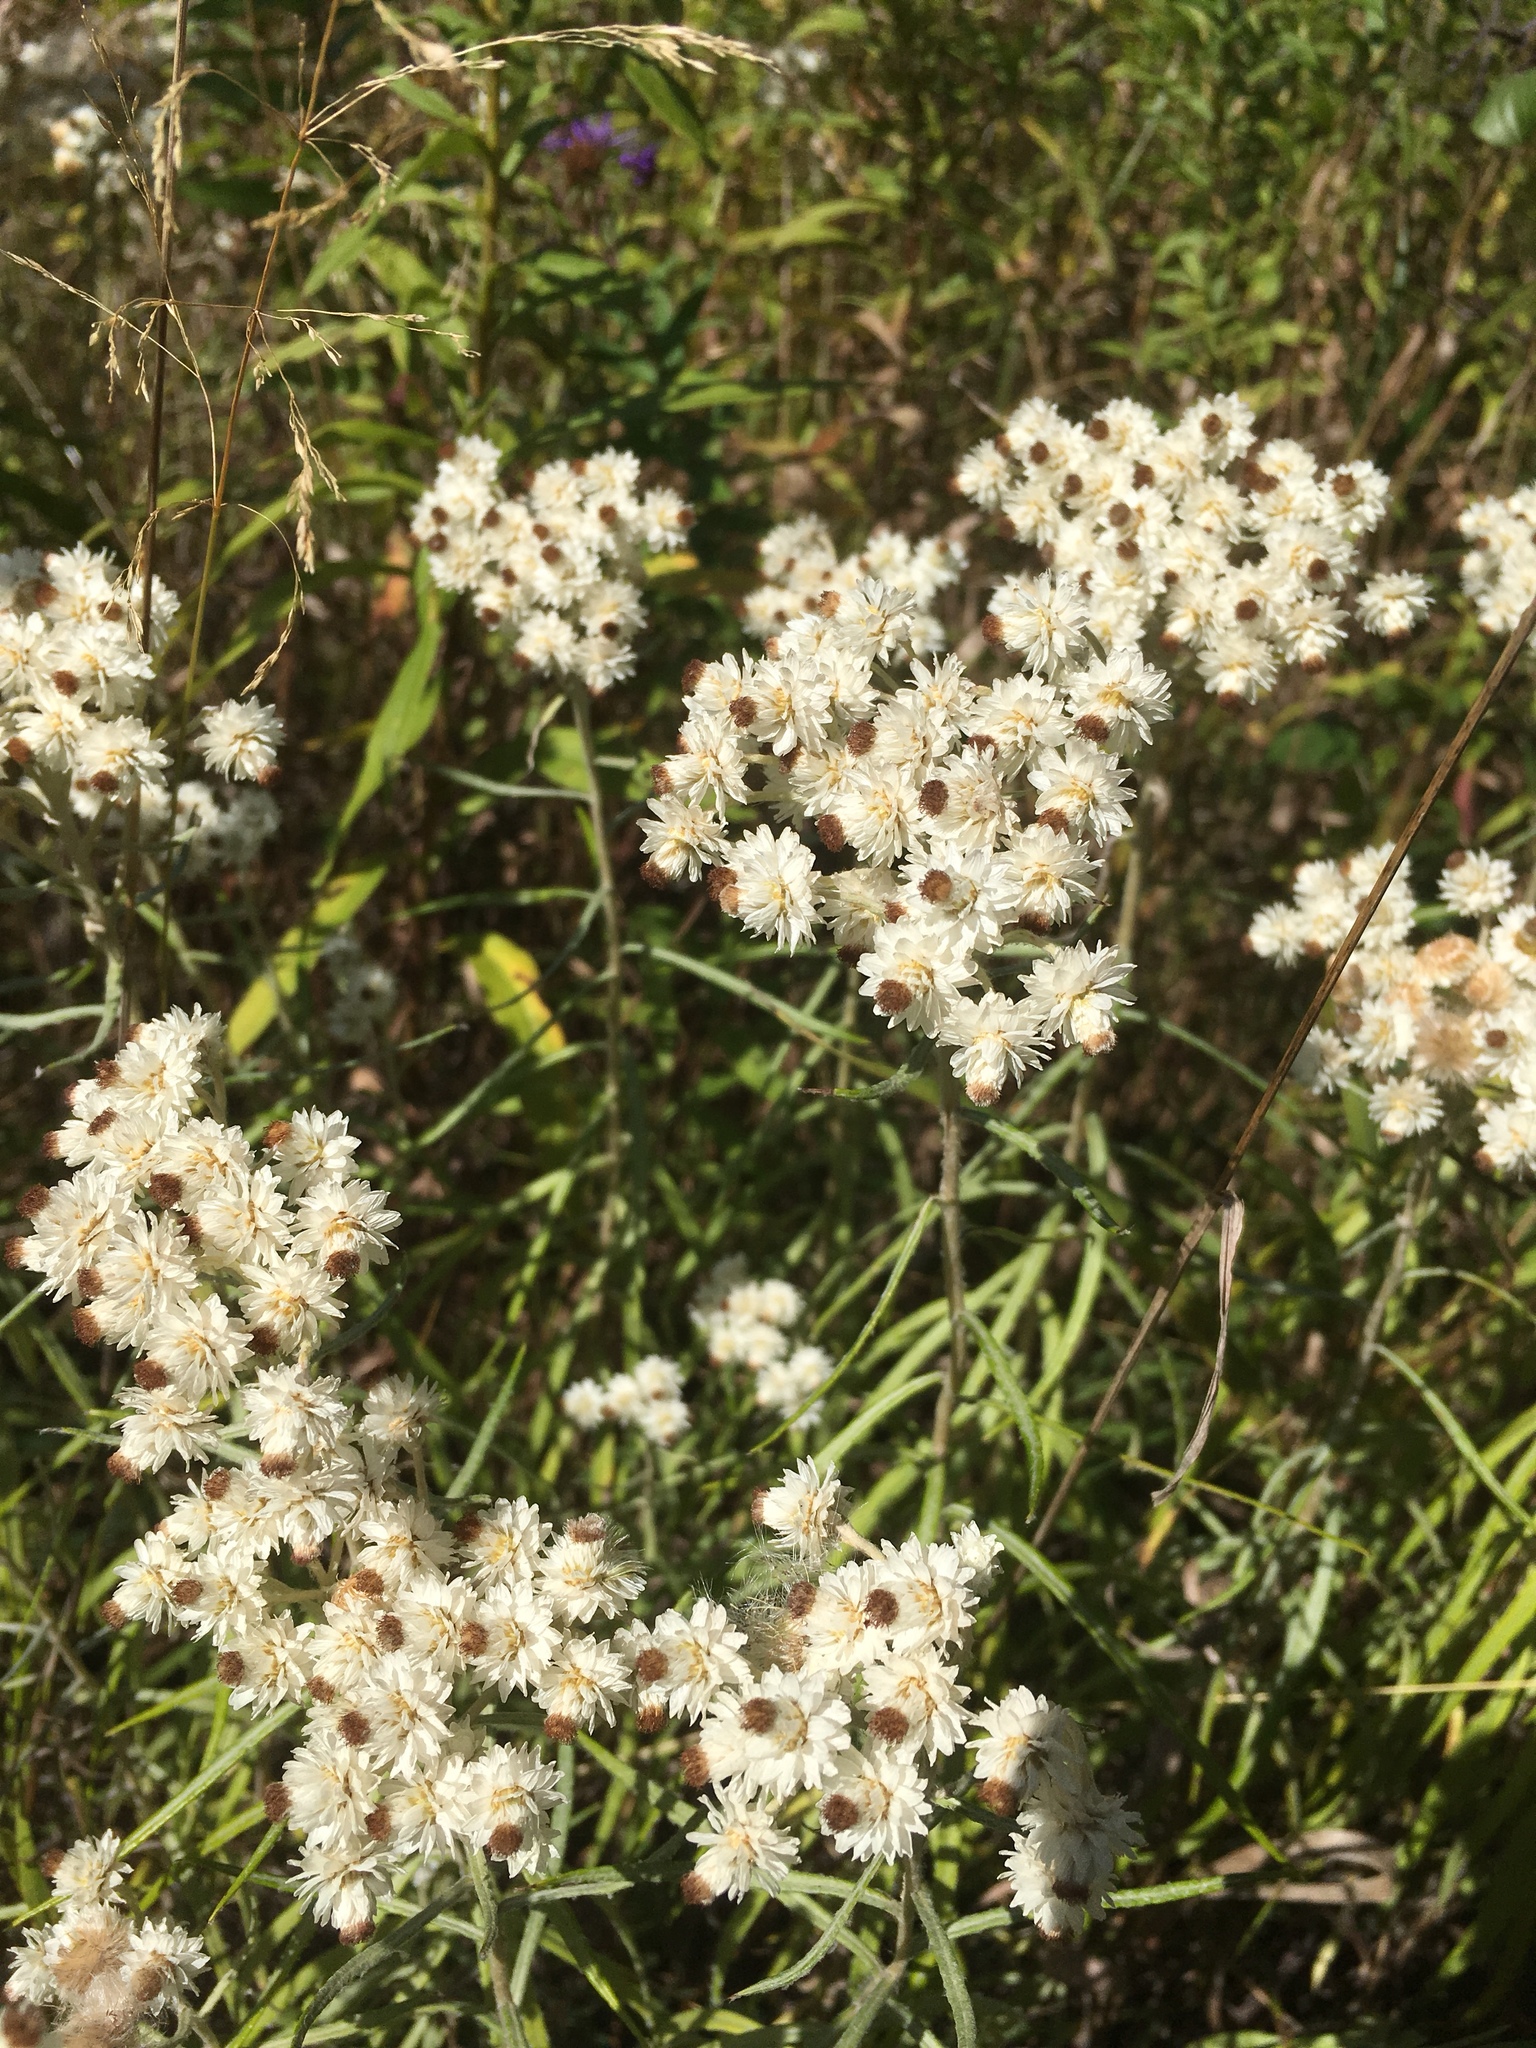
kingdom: Plantae
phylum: Tracheophyta
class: Magnoliopsida
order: Asterales
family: Asteraceae
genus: Anaphalis
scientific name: Anaphalis margaritacea
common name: Pearly everlasting
